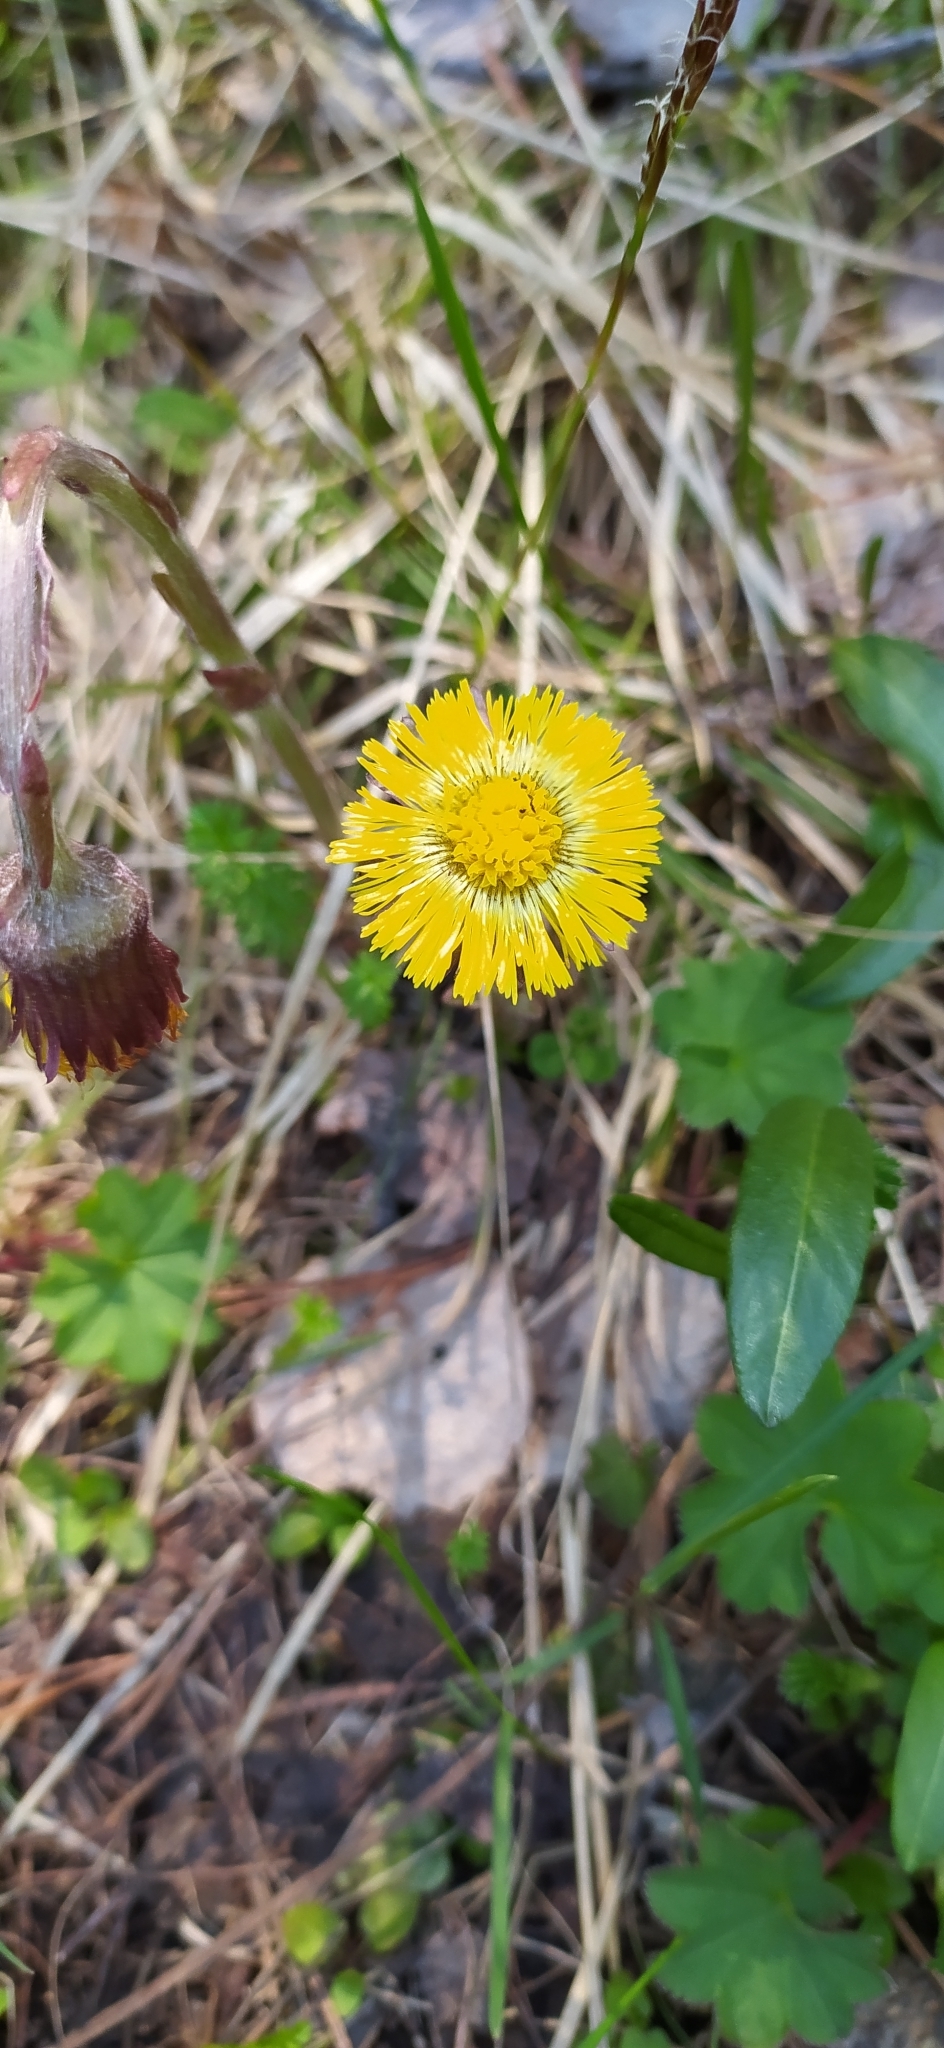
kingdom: Plantae
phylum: Tracheophyta
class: Magnoliopsida
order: Asterales
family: Asteraceae
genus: Tussilago
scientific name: Tussilago farfara
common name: Coltsfoot
